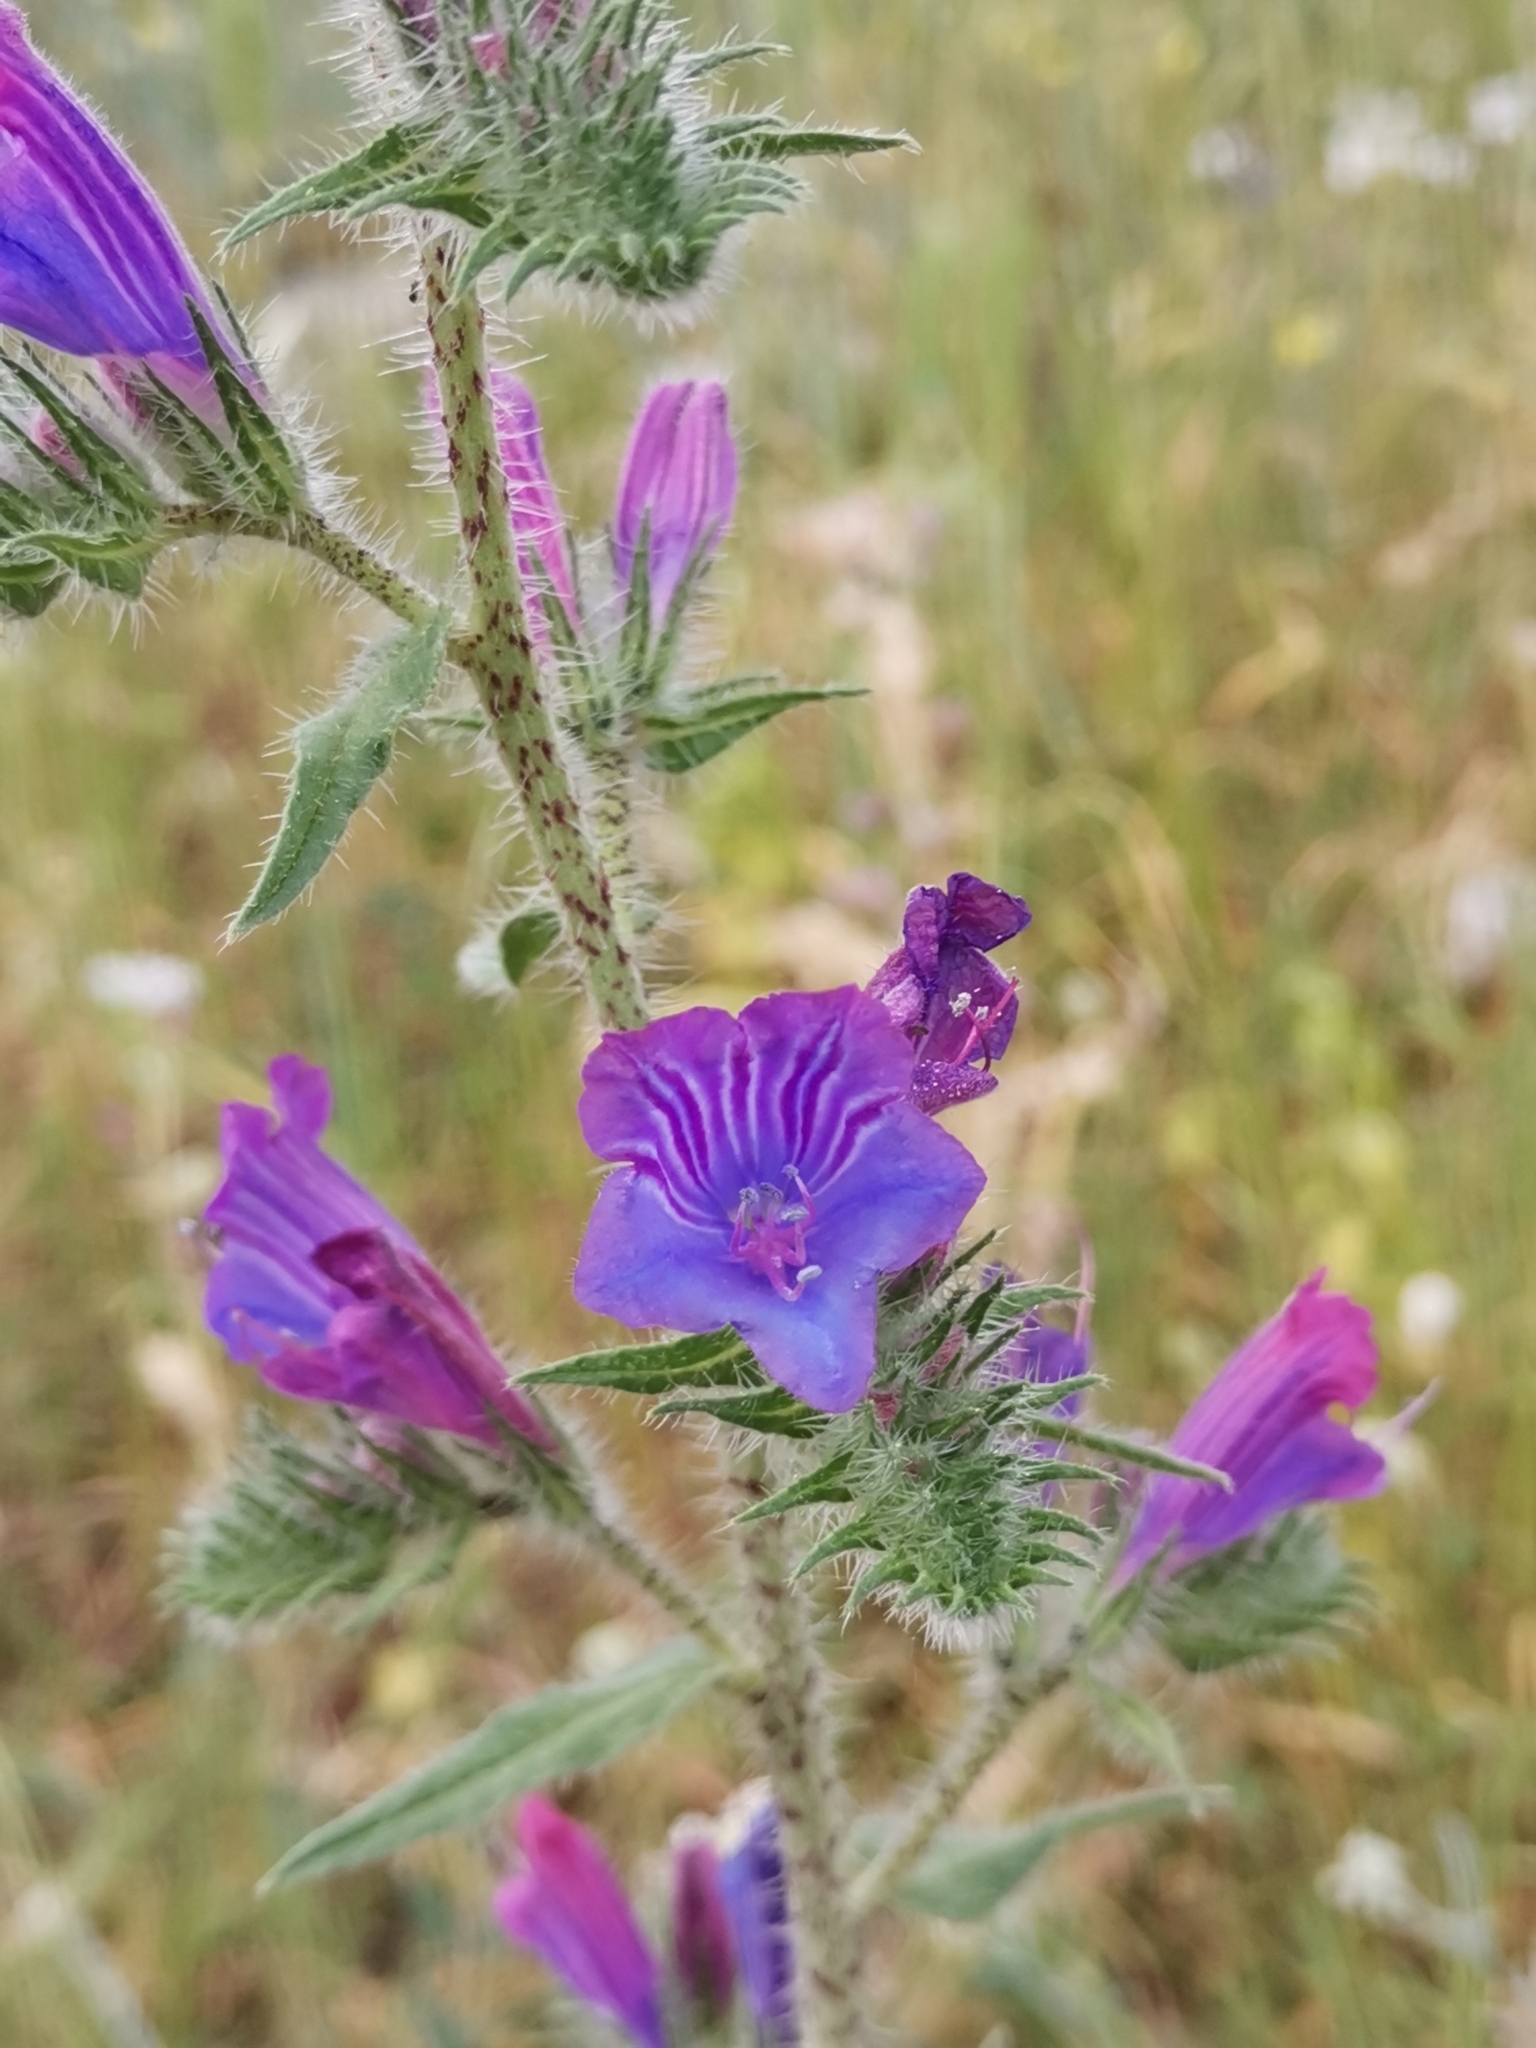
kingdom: Plantae
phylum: Tracheophyta
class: Magnoliopsida
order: Boraginales
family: Boraginaceae
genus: Echium
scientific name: Echium vulgare
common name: Common viper's bugloss
